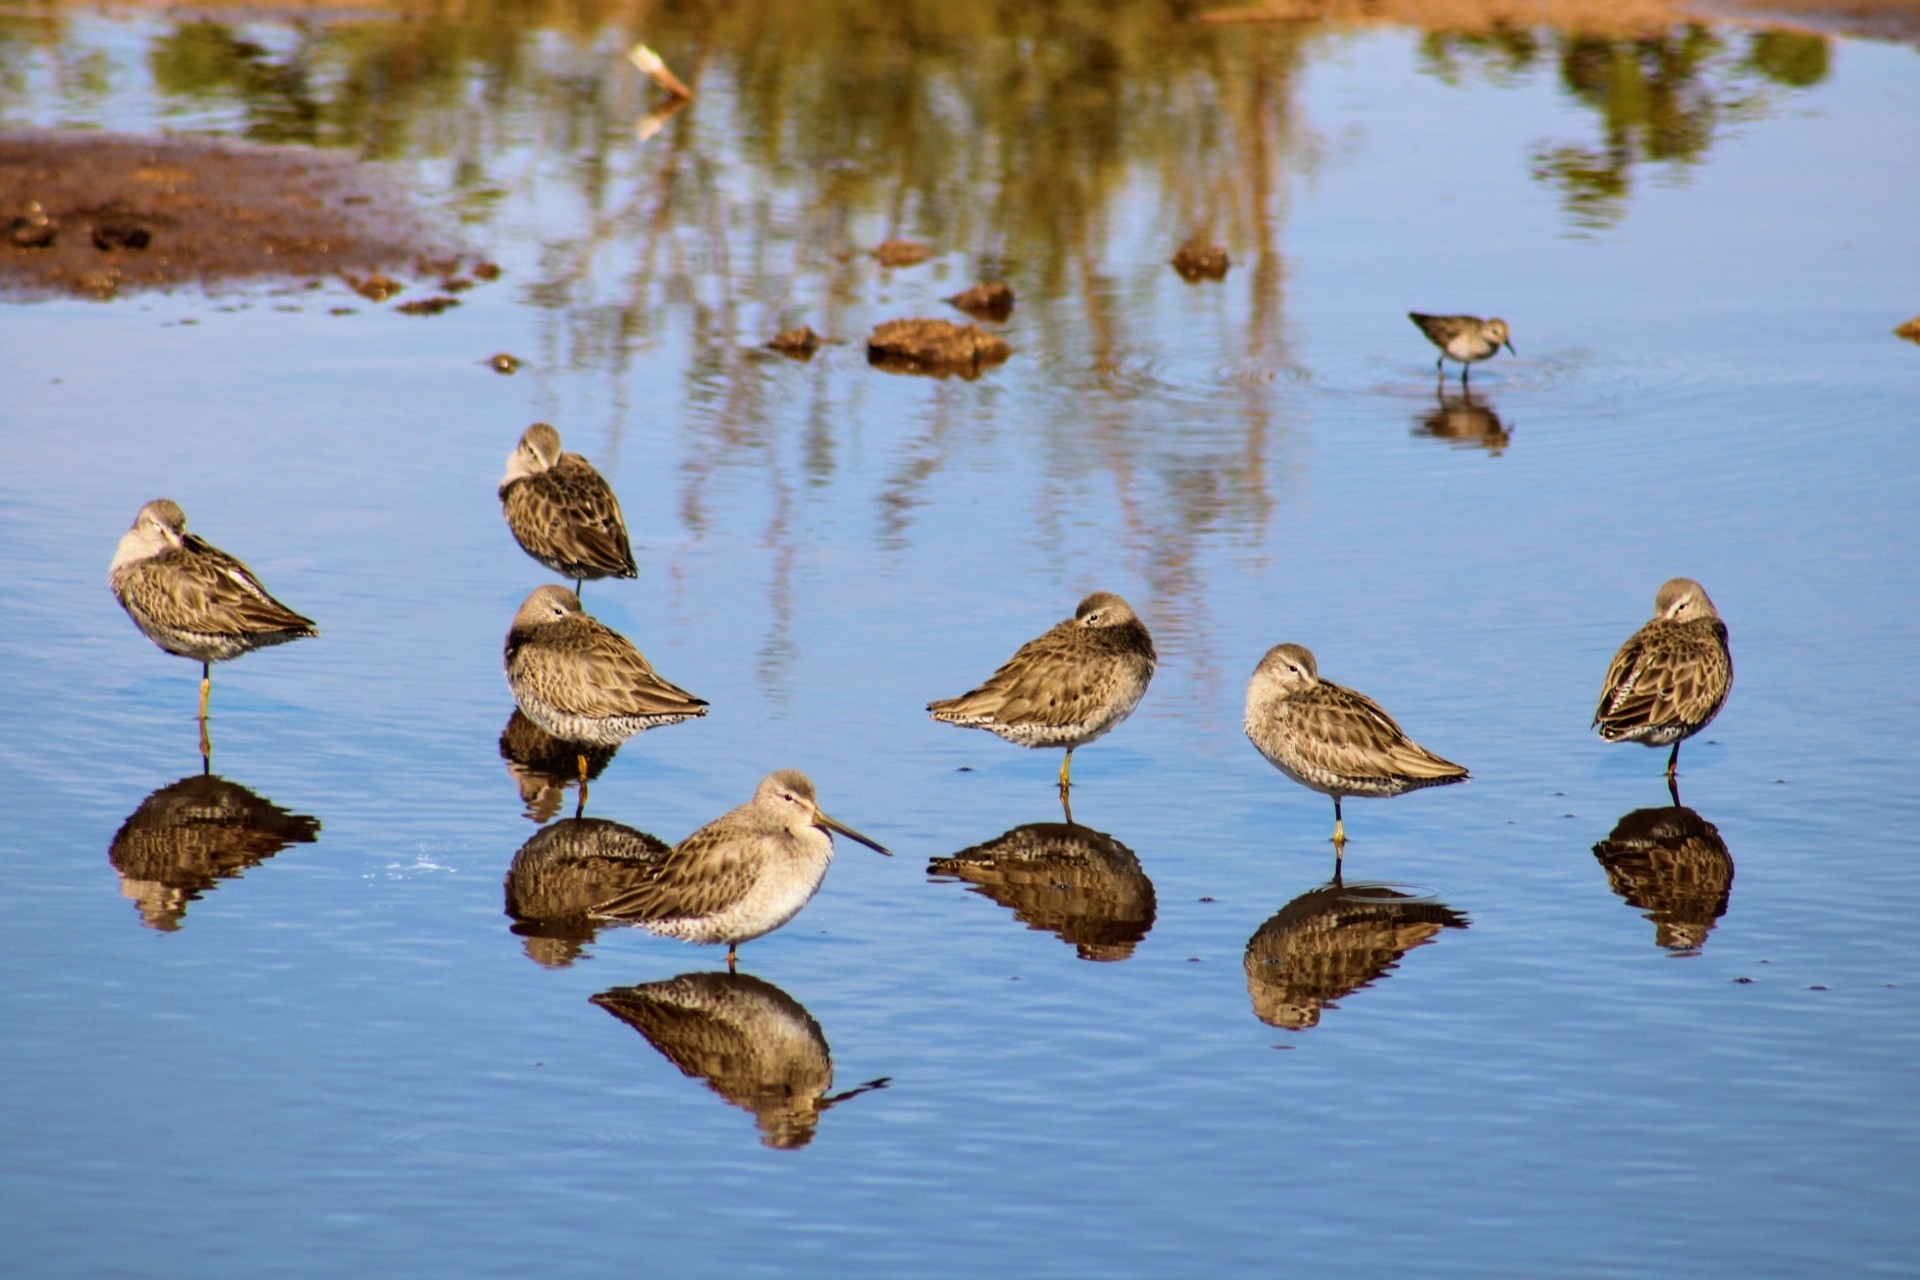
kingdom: Animalia
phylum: Chordata
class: Aves
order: Charadriiformes
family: Scolopacidae
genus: Limnodromus
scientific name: Limnodromus scolopaceus
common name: Long-billed dowitcher
